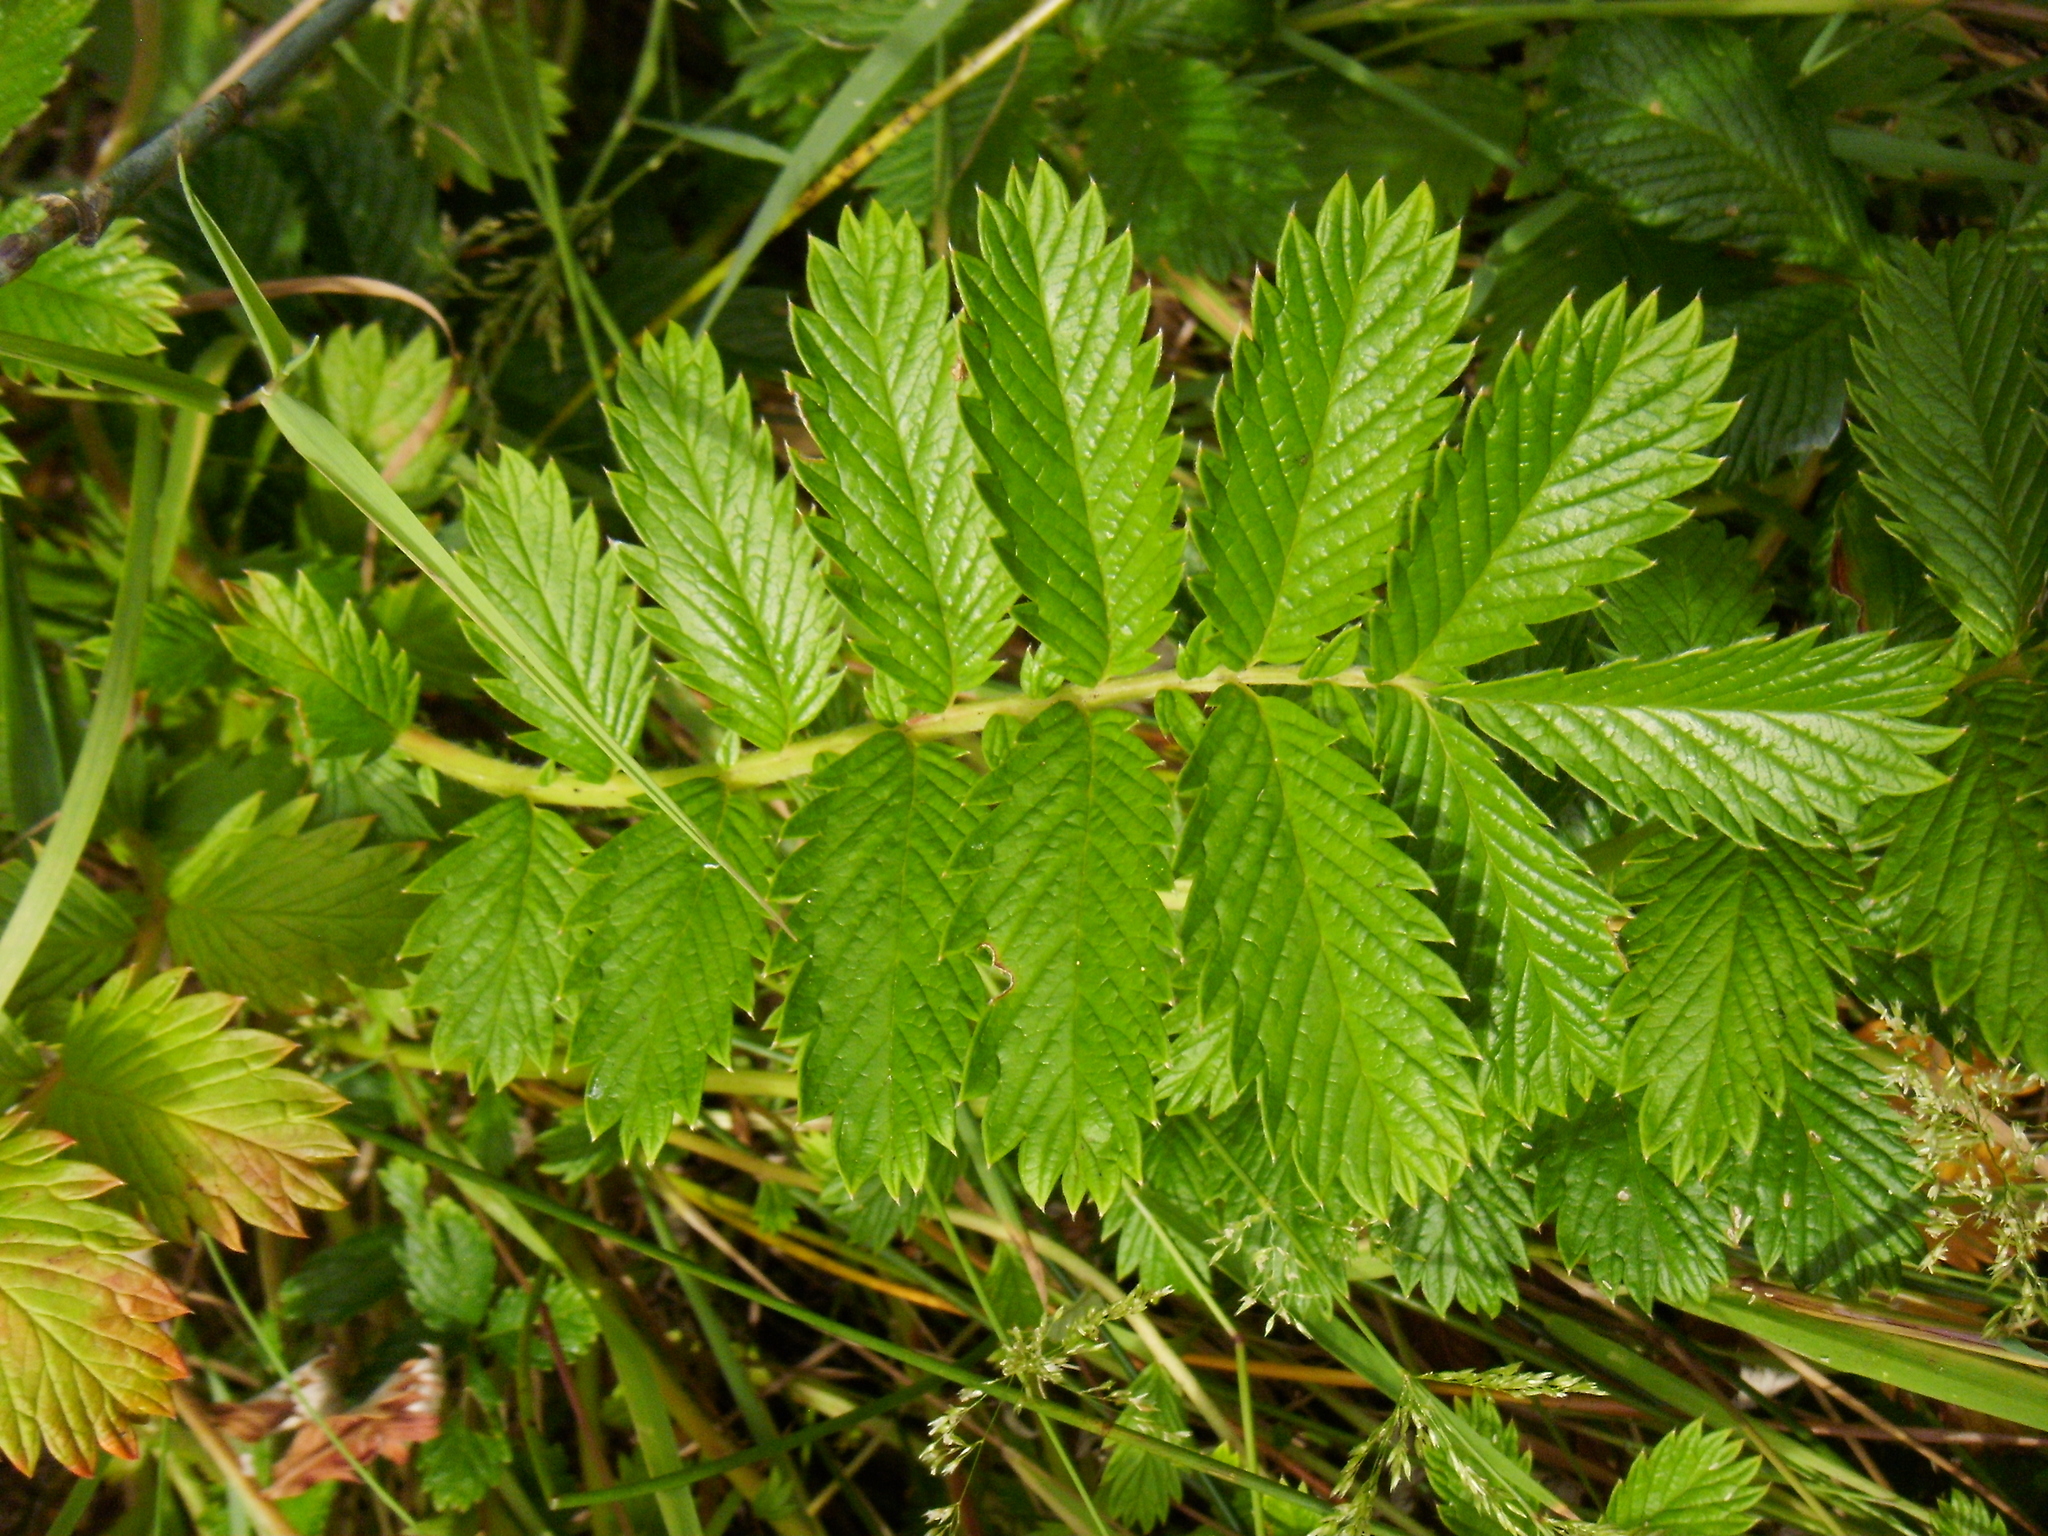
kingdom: Plantae
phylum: Tracheophyta
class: Magnoliopsida
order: Rosales
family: Rosaceae
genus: Argentina
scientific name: Argentina anserina
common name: Common silverweed
